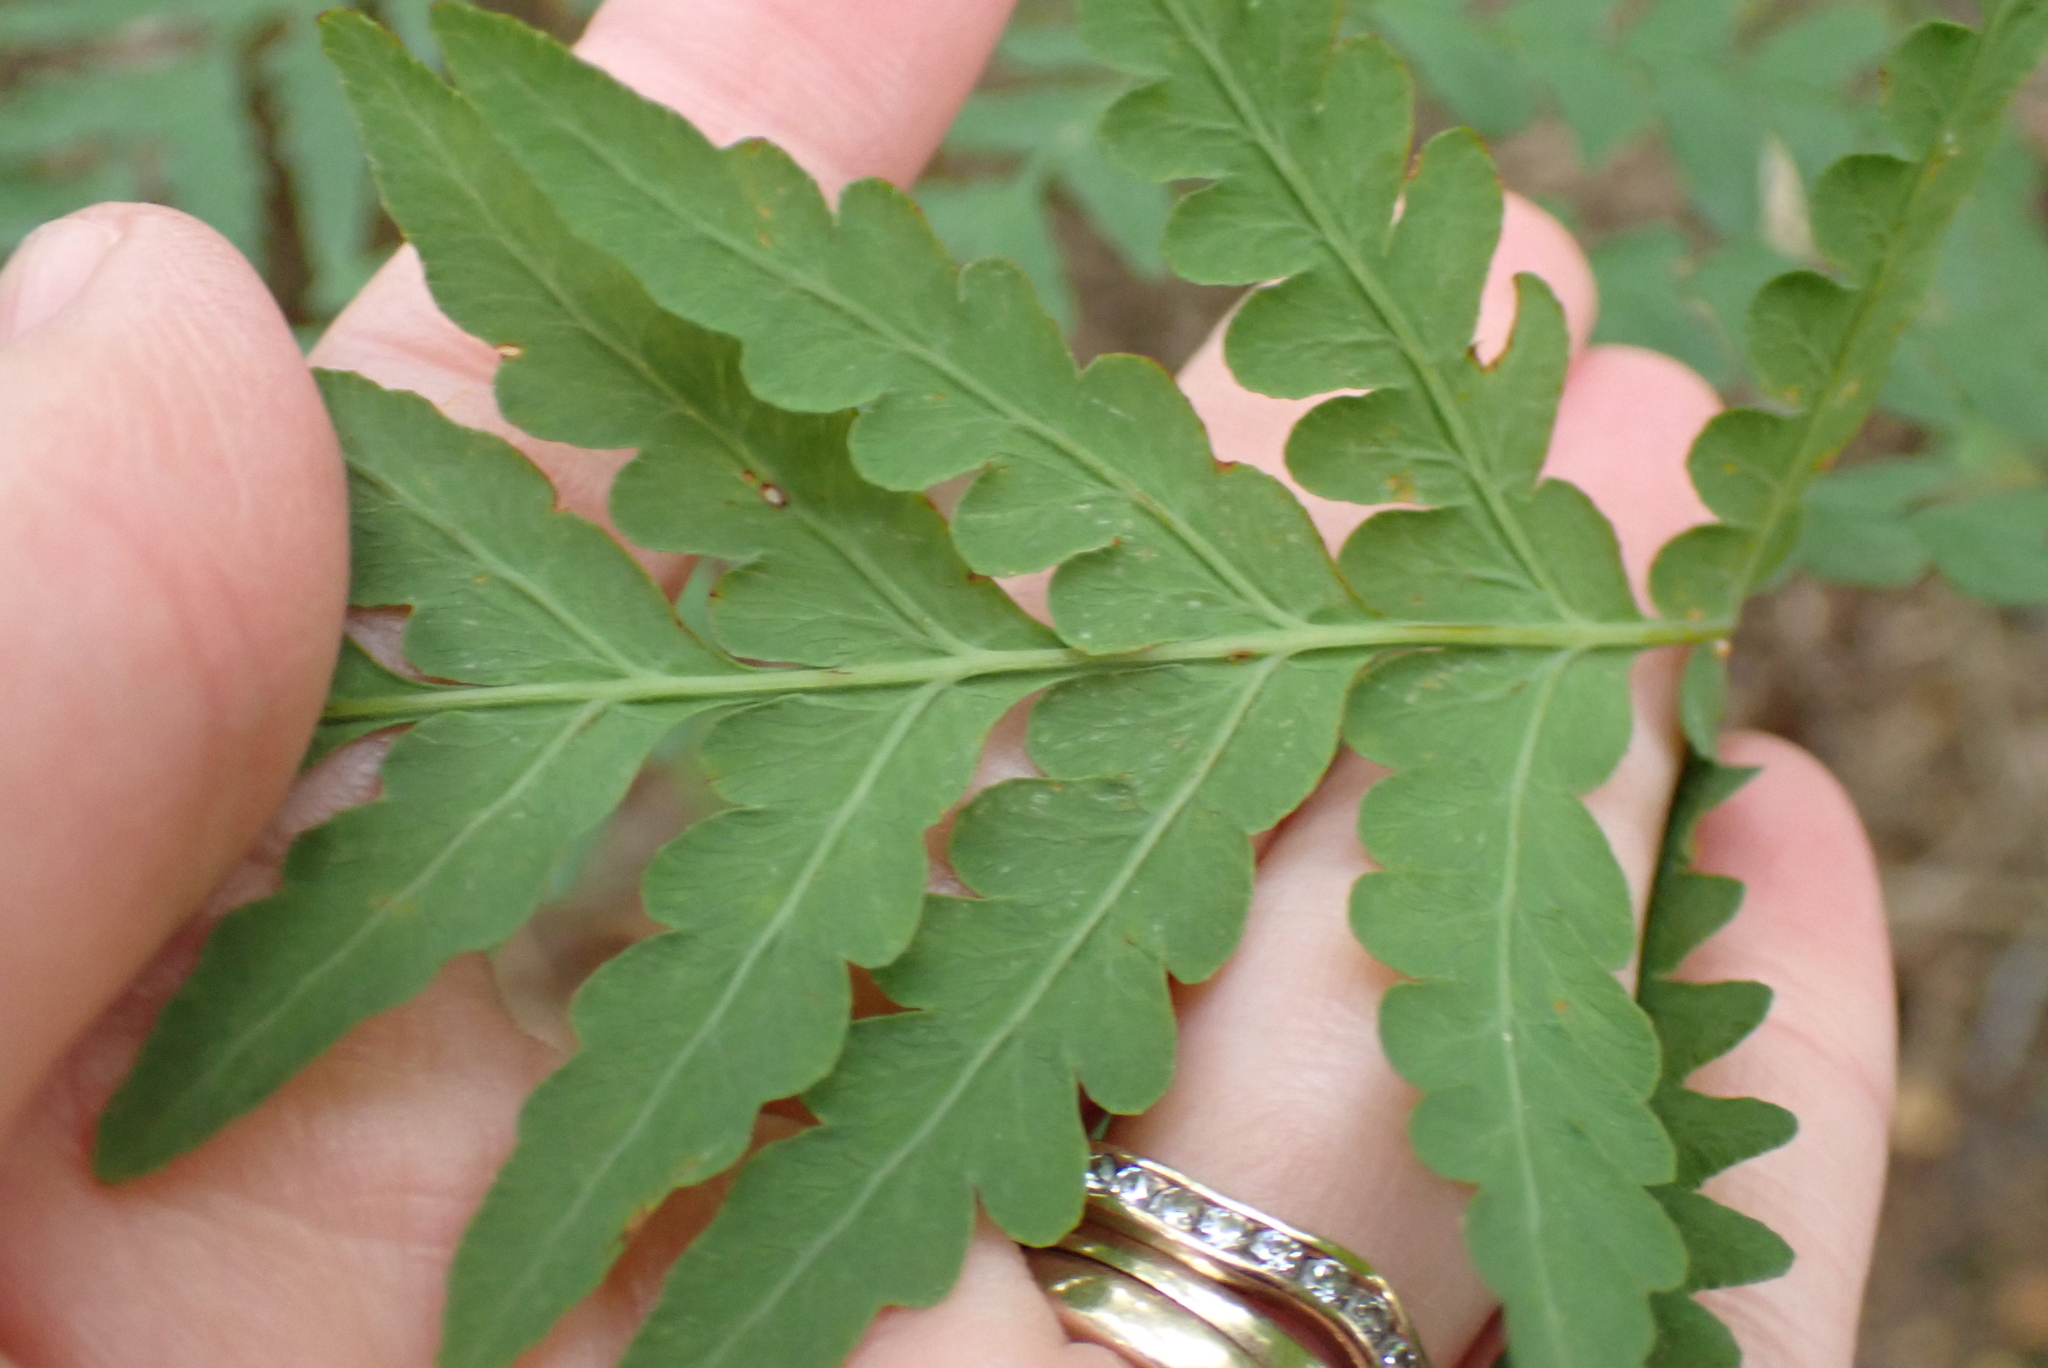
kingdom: Plantae
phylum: Tracheophyta
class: Polypodiopsida
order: Polypodiales
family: Dennstaedtiaceae
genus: Histiopteris
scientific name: Histiopteris incisa
